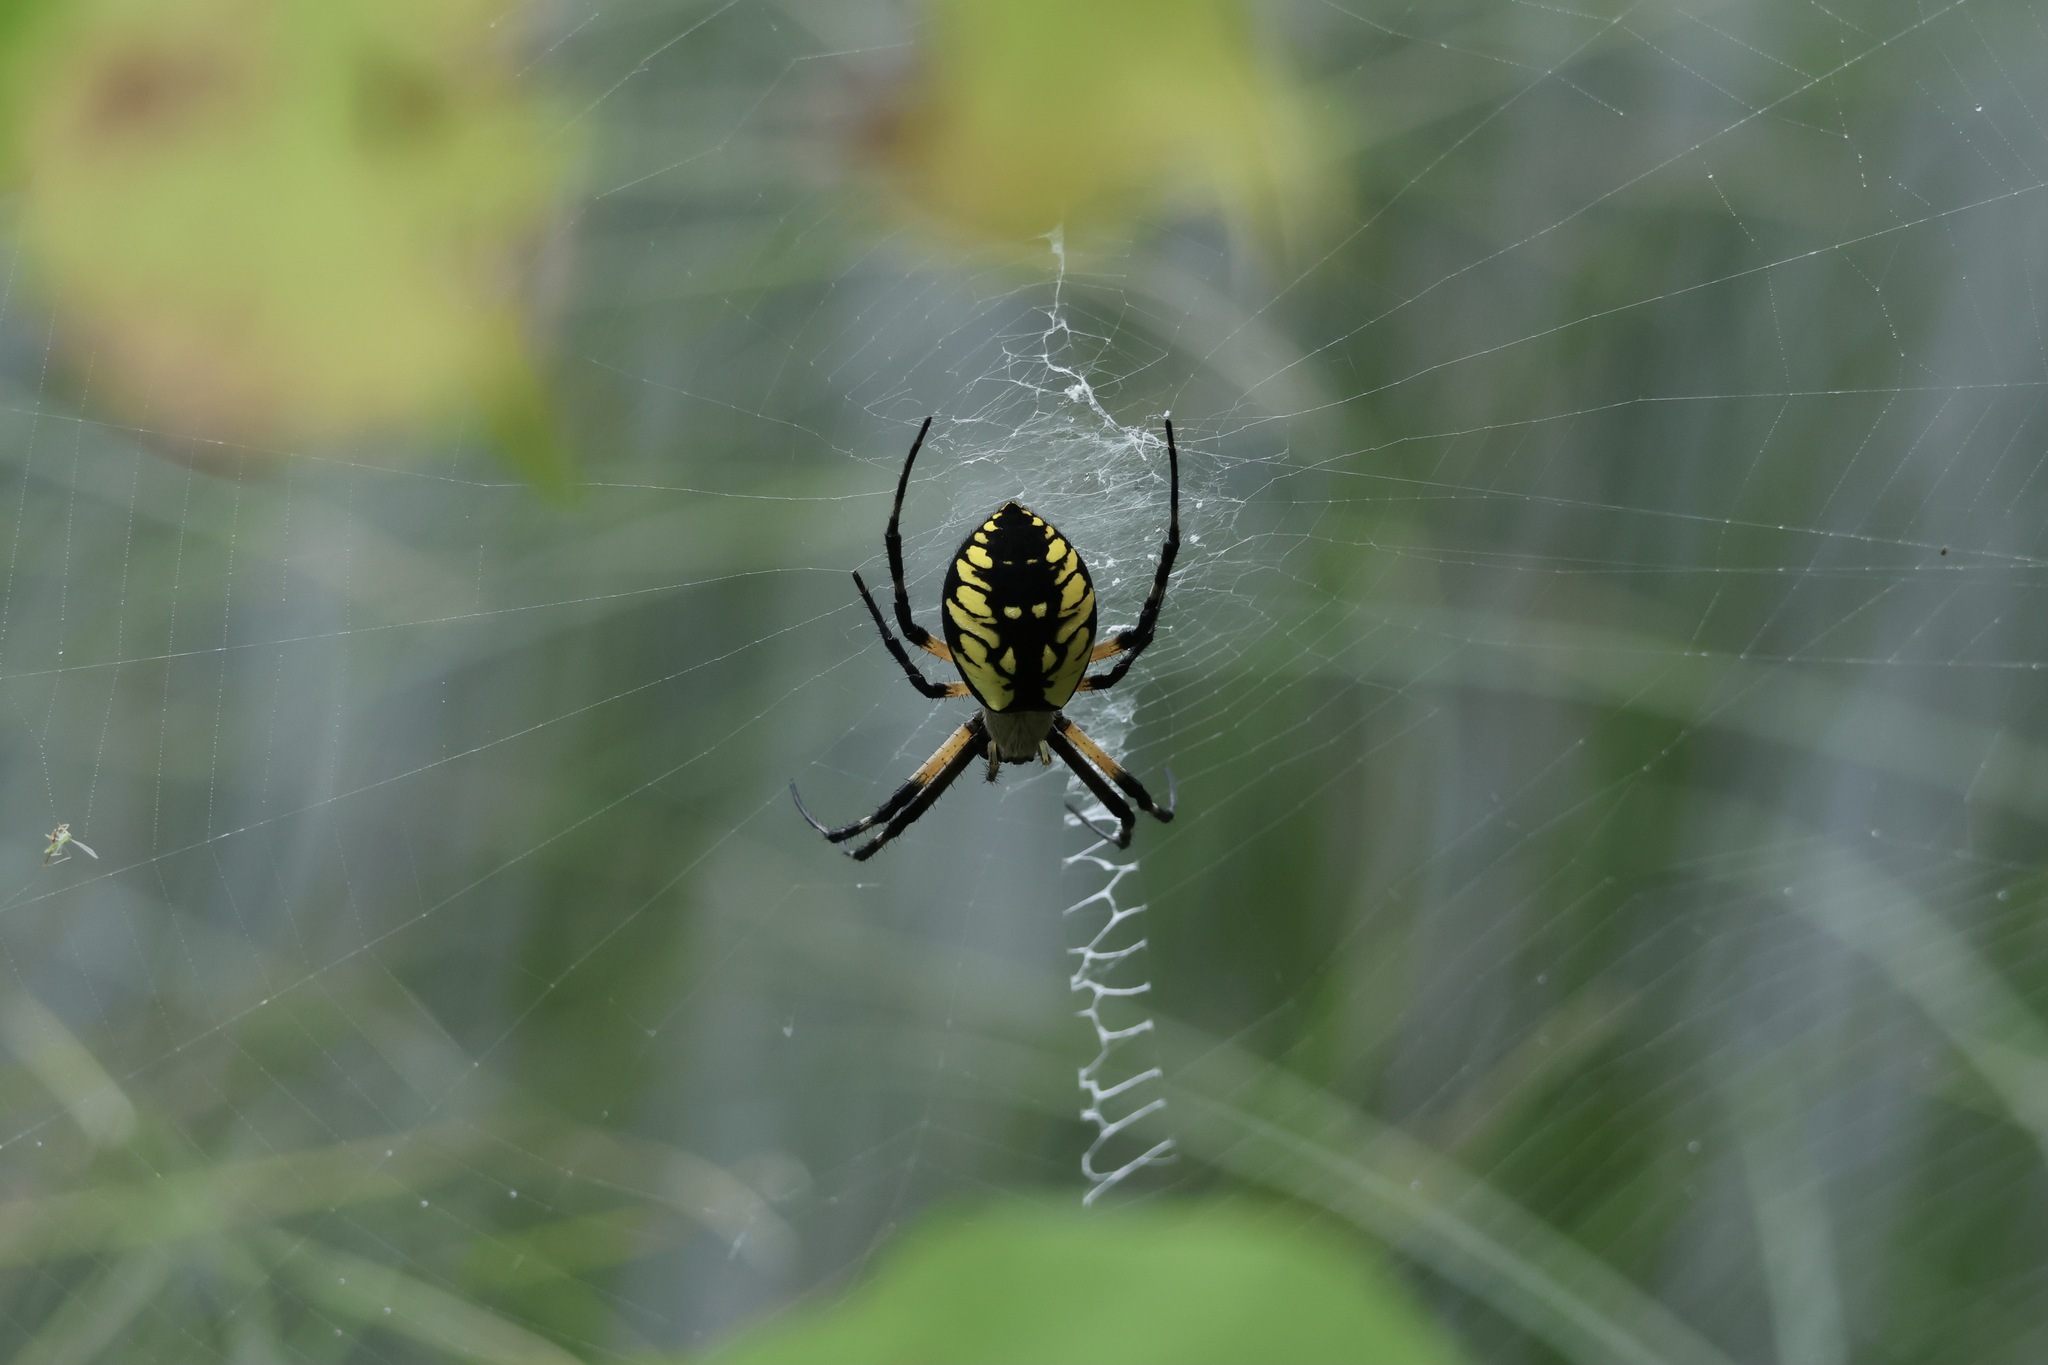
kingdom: Animalia
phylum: Arthropoda
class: Arachnida
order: Araneae
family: Araneidae
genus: Argiope
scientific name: Argiope aurantia
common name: Orb weavers
